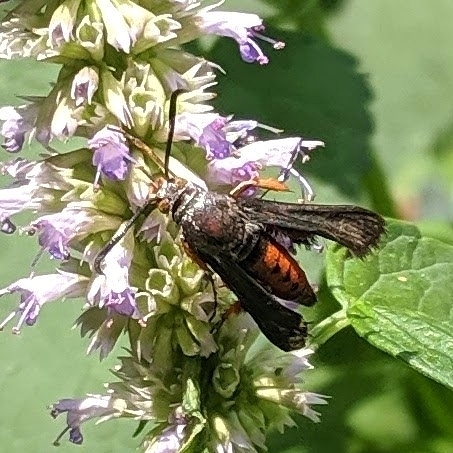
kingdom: Animalia
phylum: Arthropoda
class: Insecta
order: Lepidoptera
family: Sesiidae
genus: Eichlinia
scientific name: Eichlinia cucurbitae
